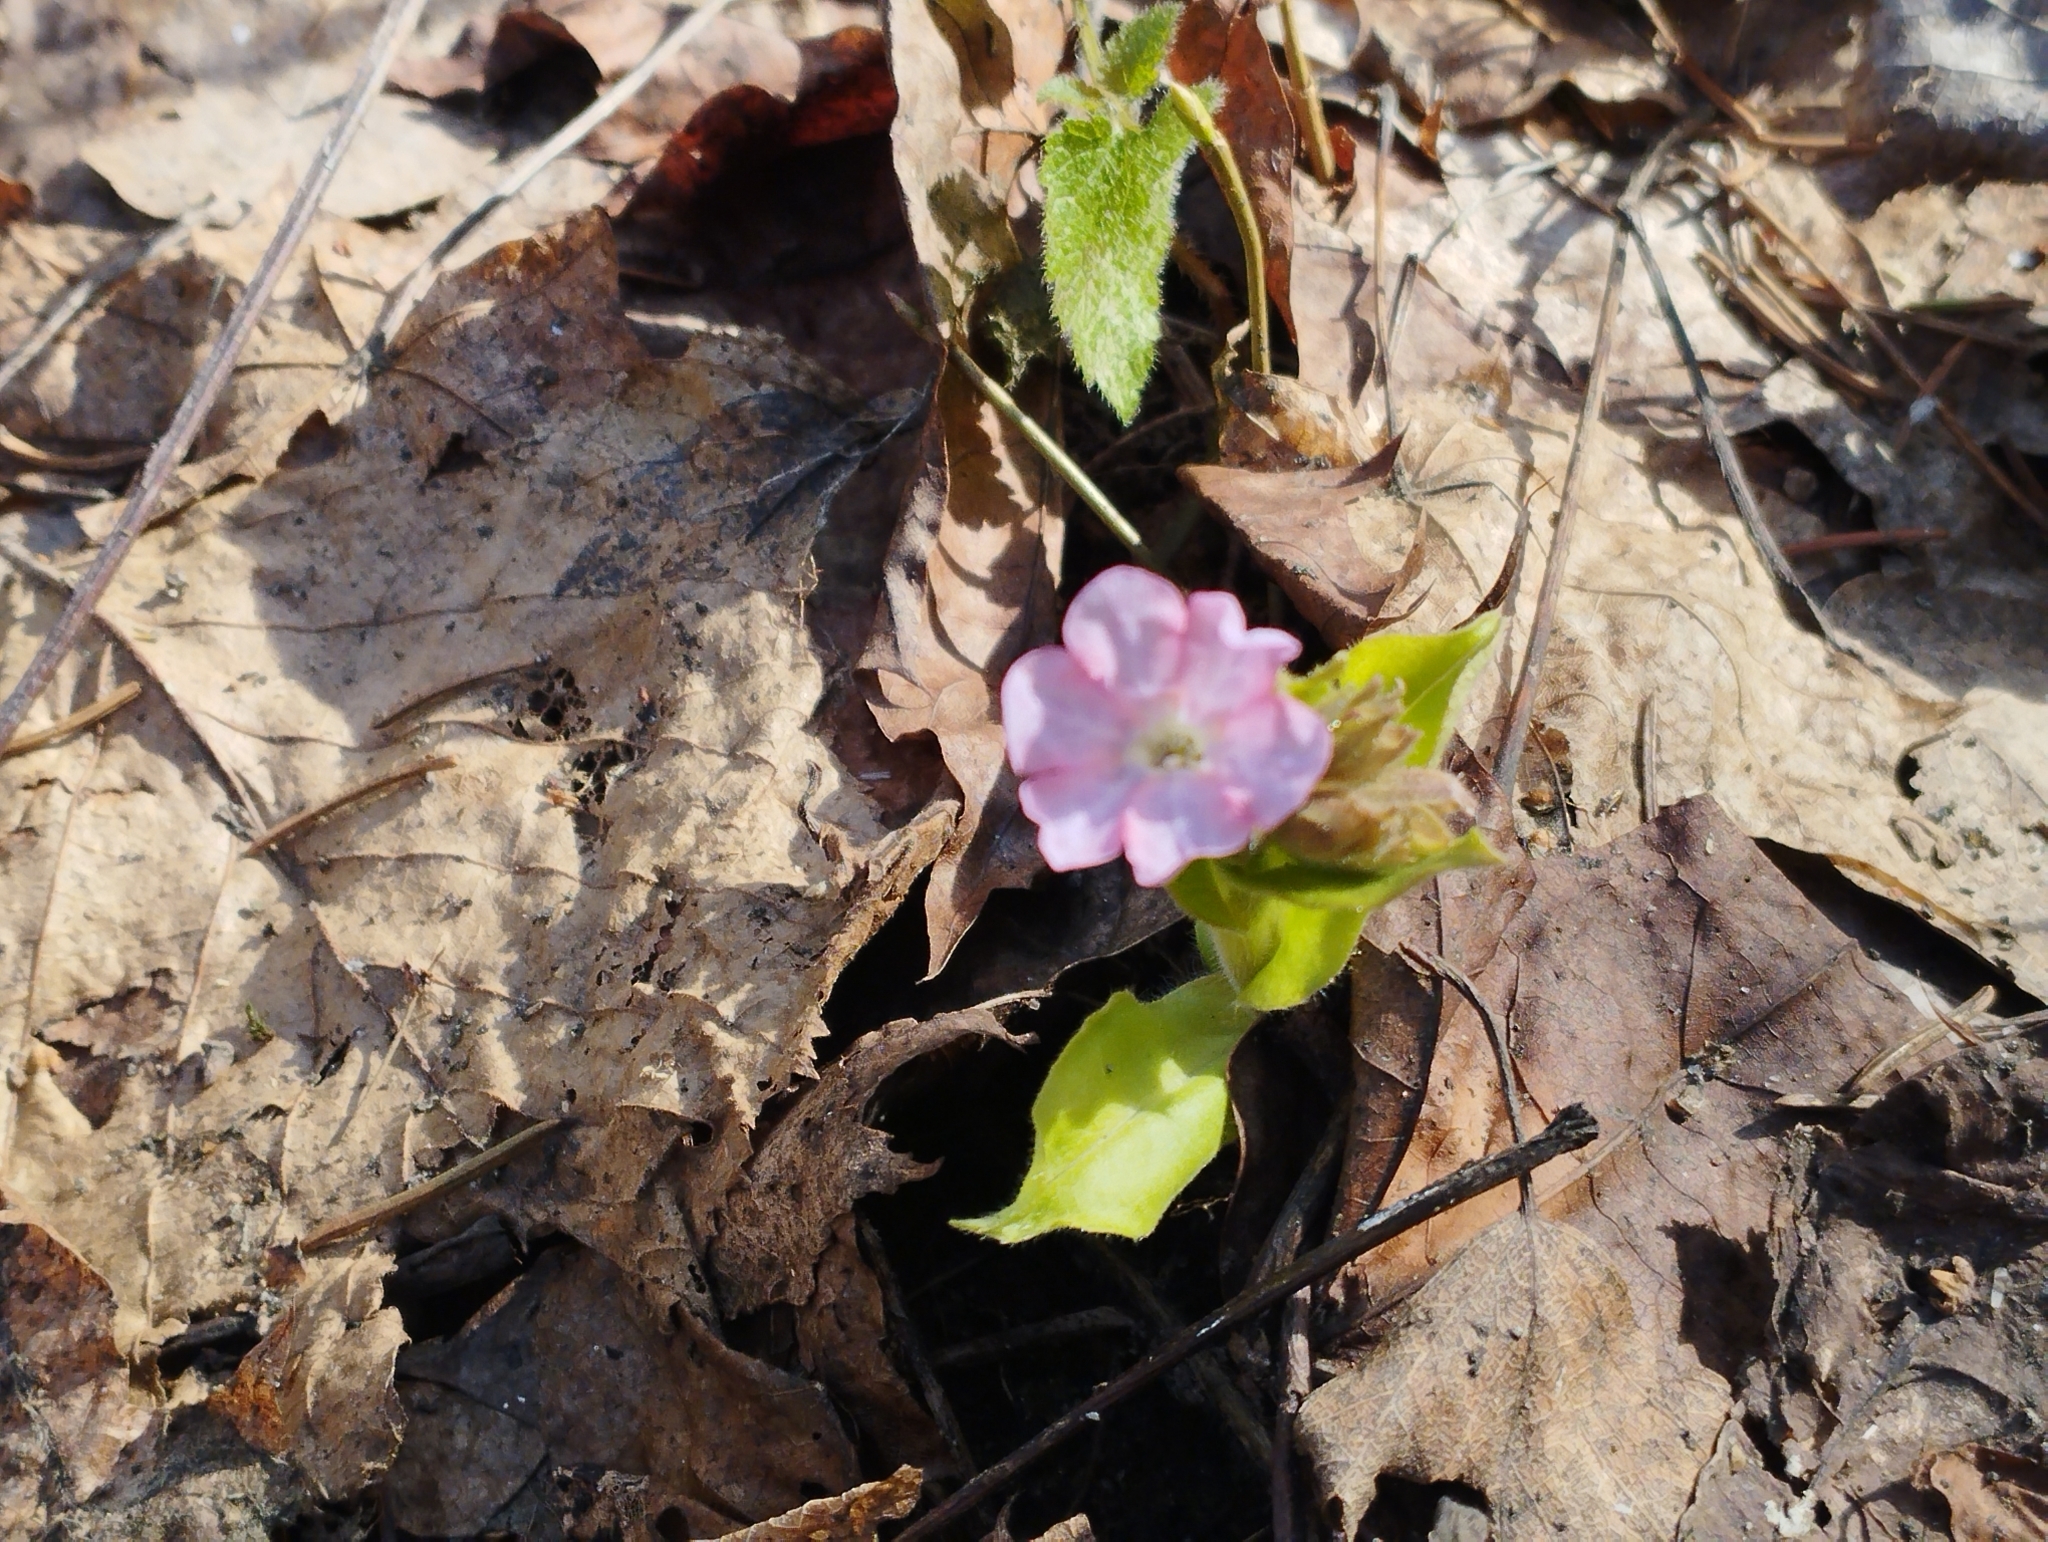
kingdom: Plantae
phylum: Tracheophyta
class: Magnoliopsida
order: Boraginales
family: Boraginaceae
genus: Pulmonaria
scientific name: Pulmonaria obscura
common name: Suffolk lungwort
